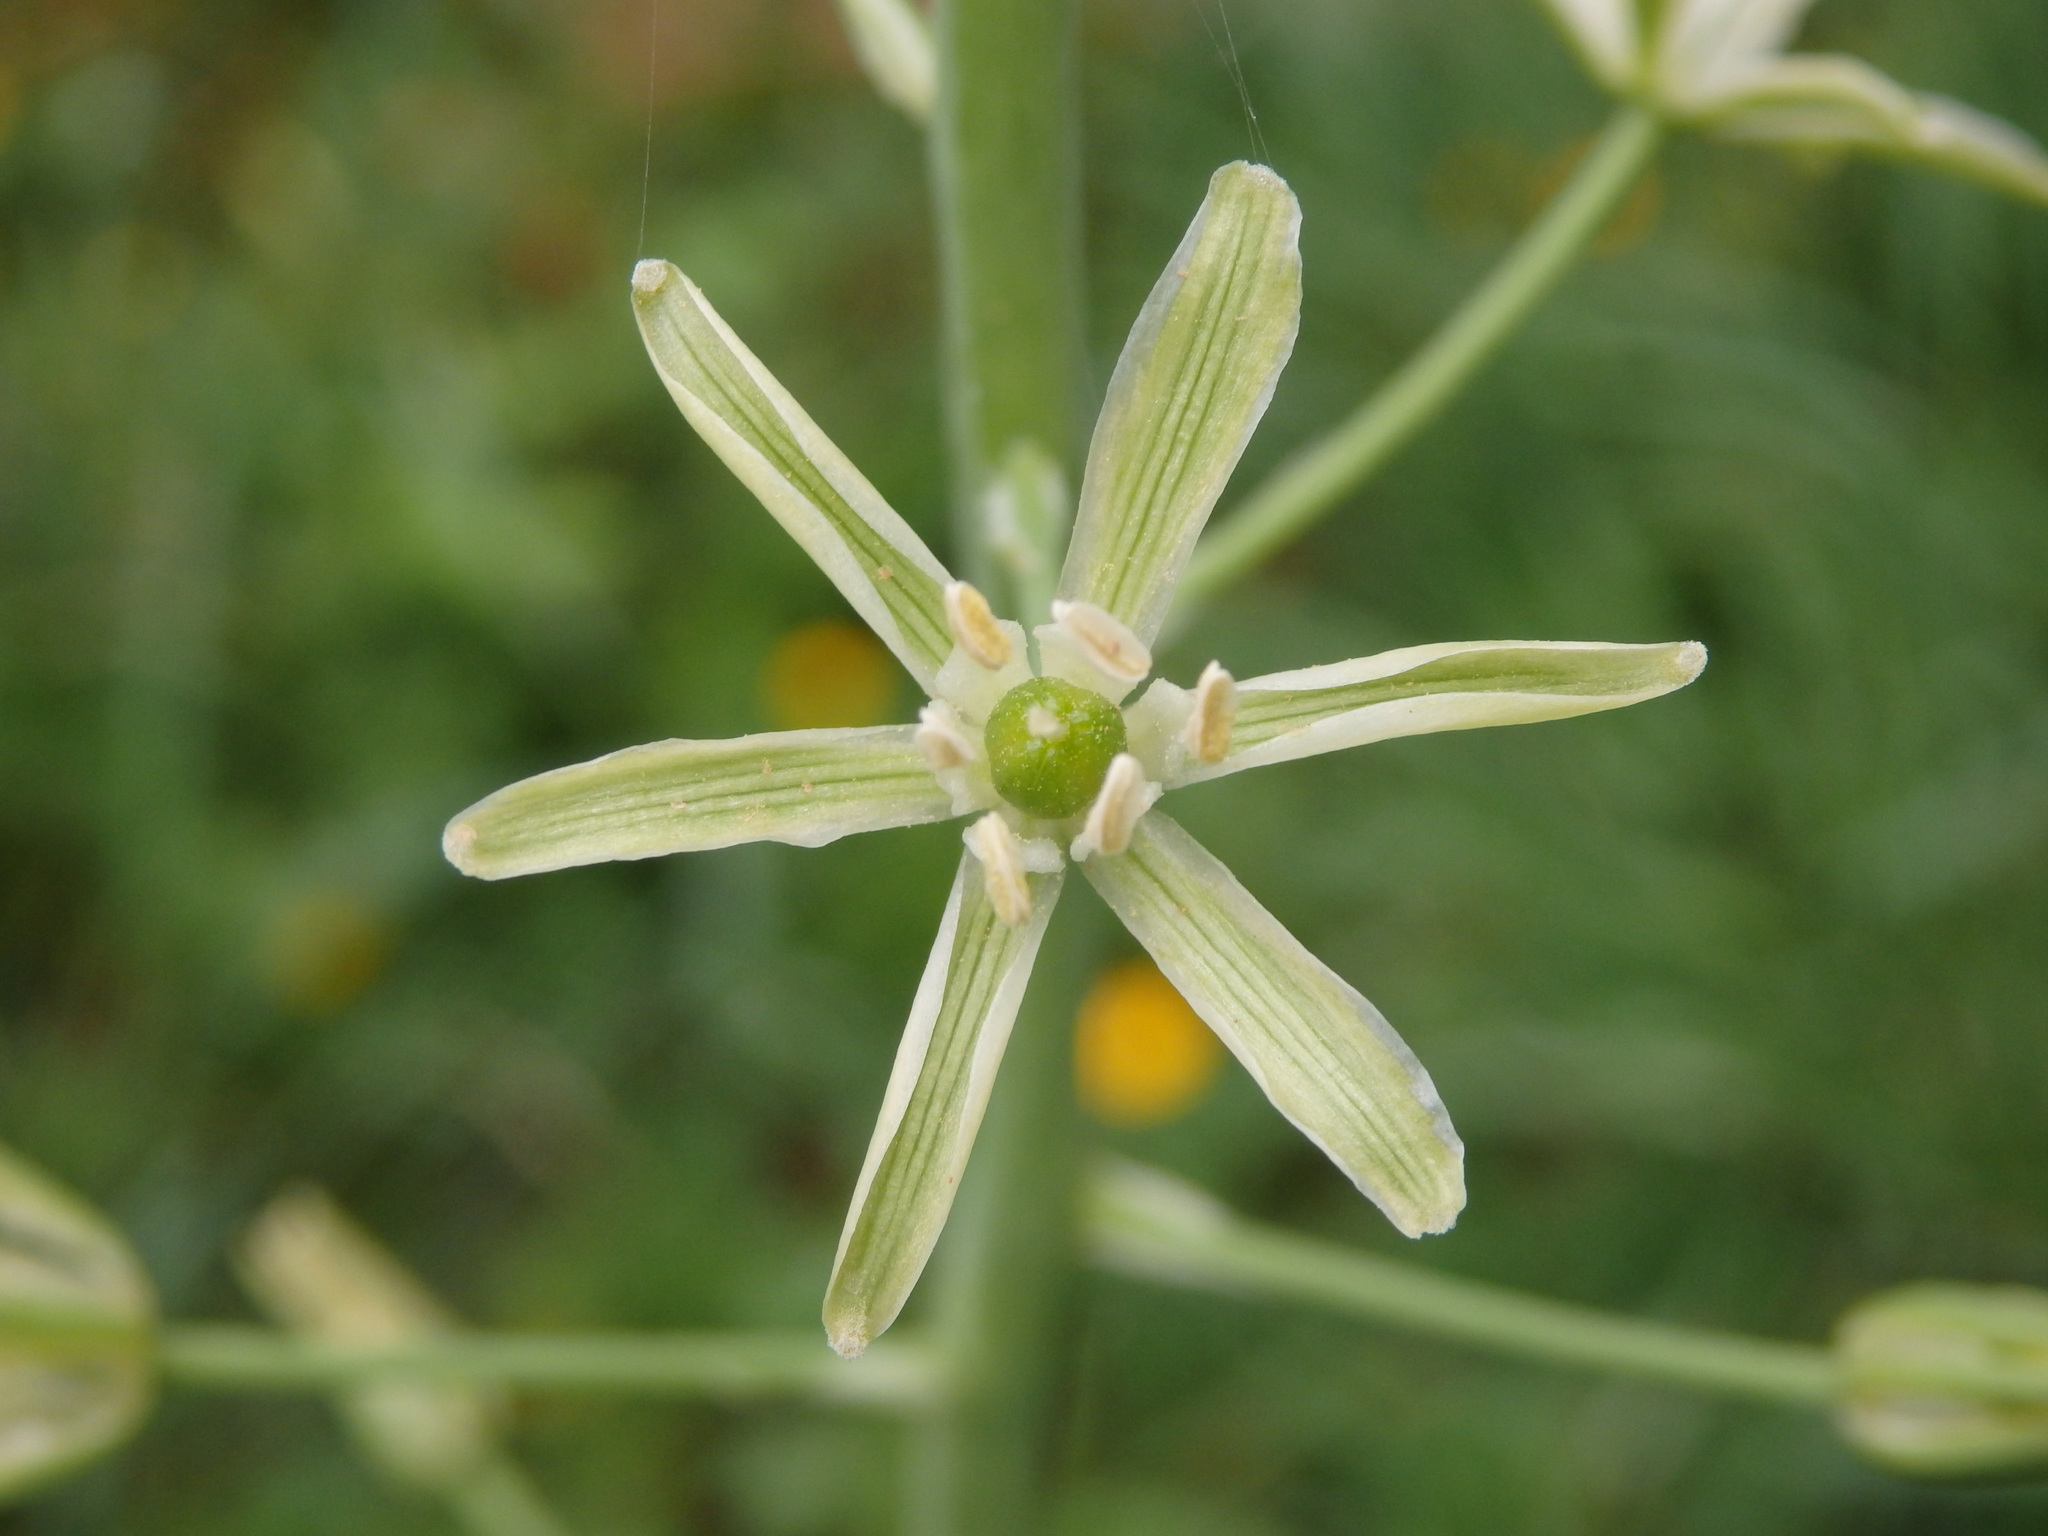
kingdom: Plantae
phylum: Tracheophyta
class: Liliopsida
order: Asparagales
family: Asparagaceae
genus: Ornithogalum
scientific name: Ornithogalum pyrenaicum
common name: Spiked star-of-bethlehem
